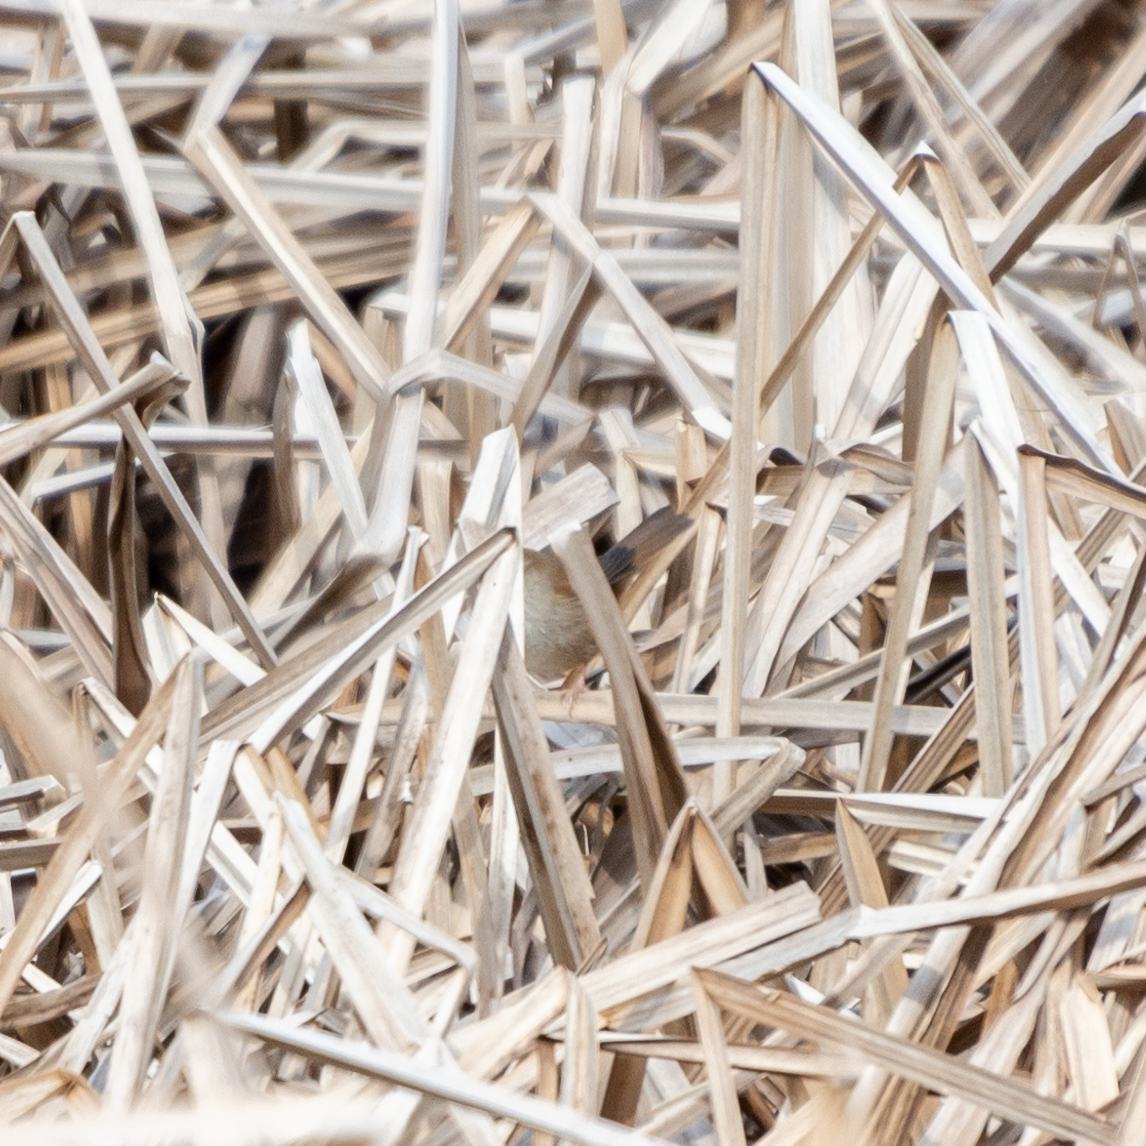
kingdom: Animalia
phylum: Chordata
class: Aves
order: Passeriformes
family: Cettiidae
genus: Cettia
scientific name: Cettia cetti
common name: Cetti's warbler
